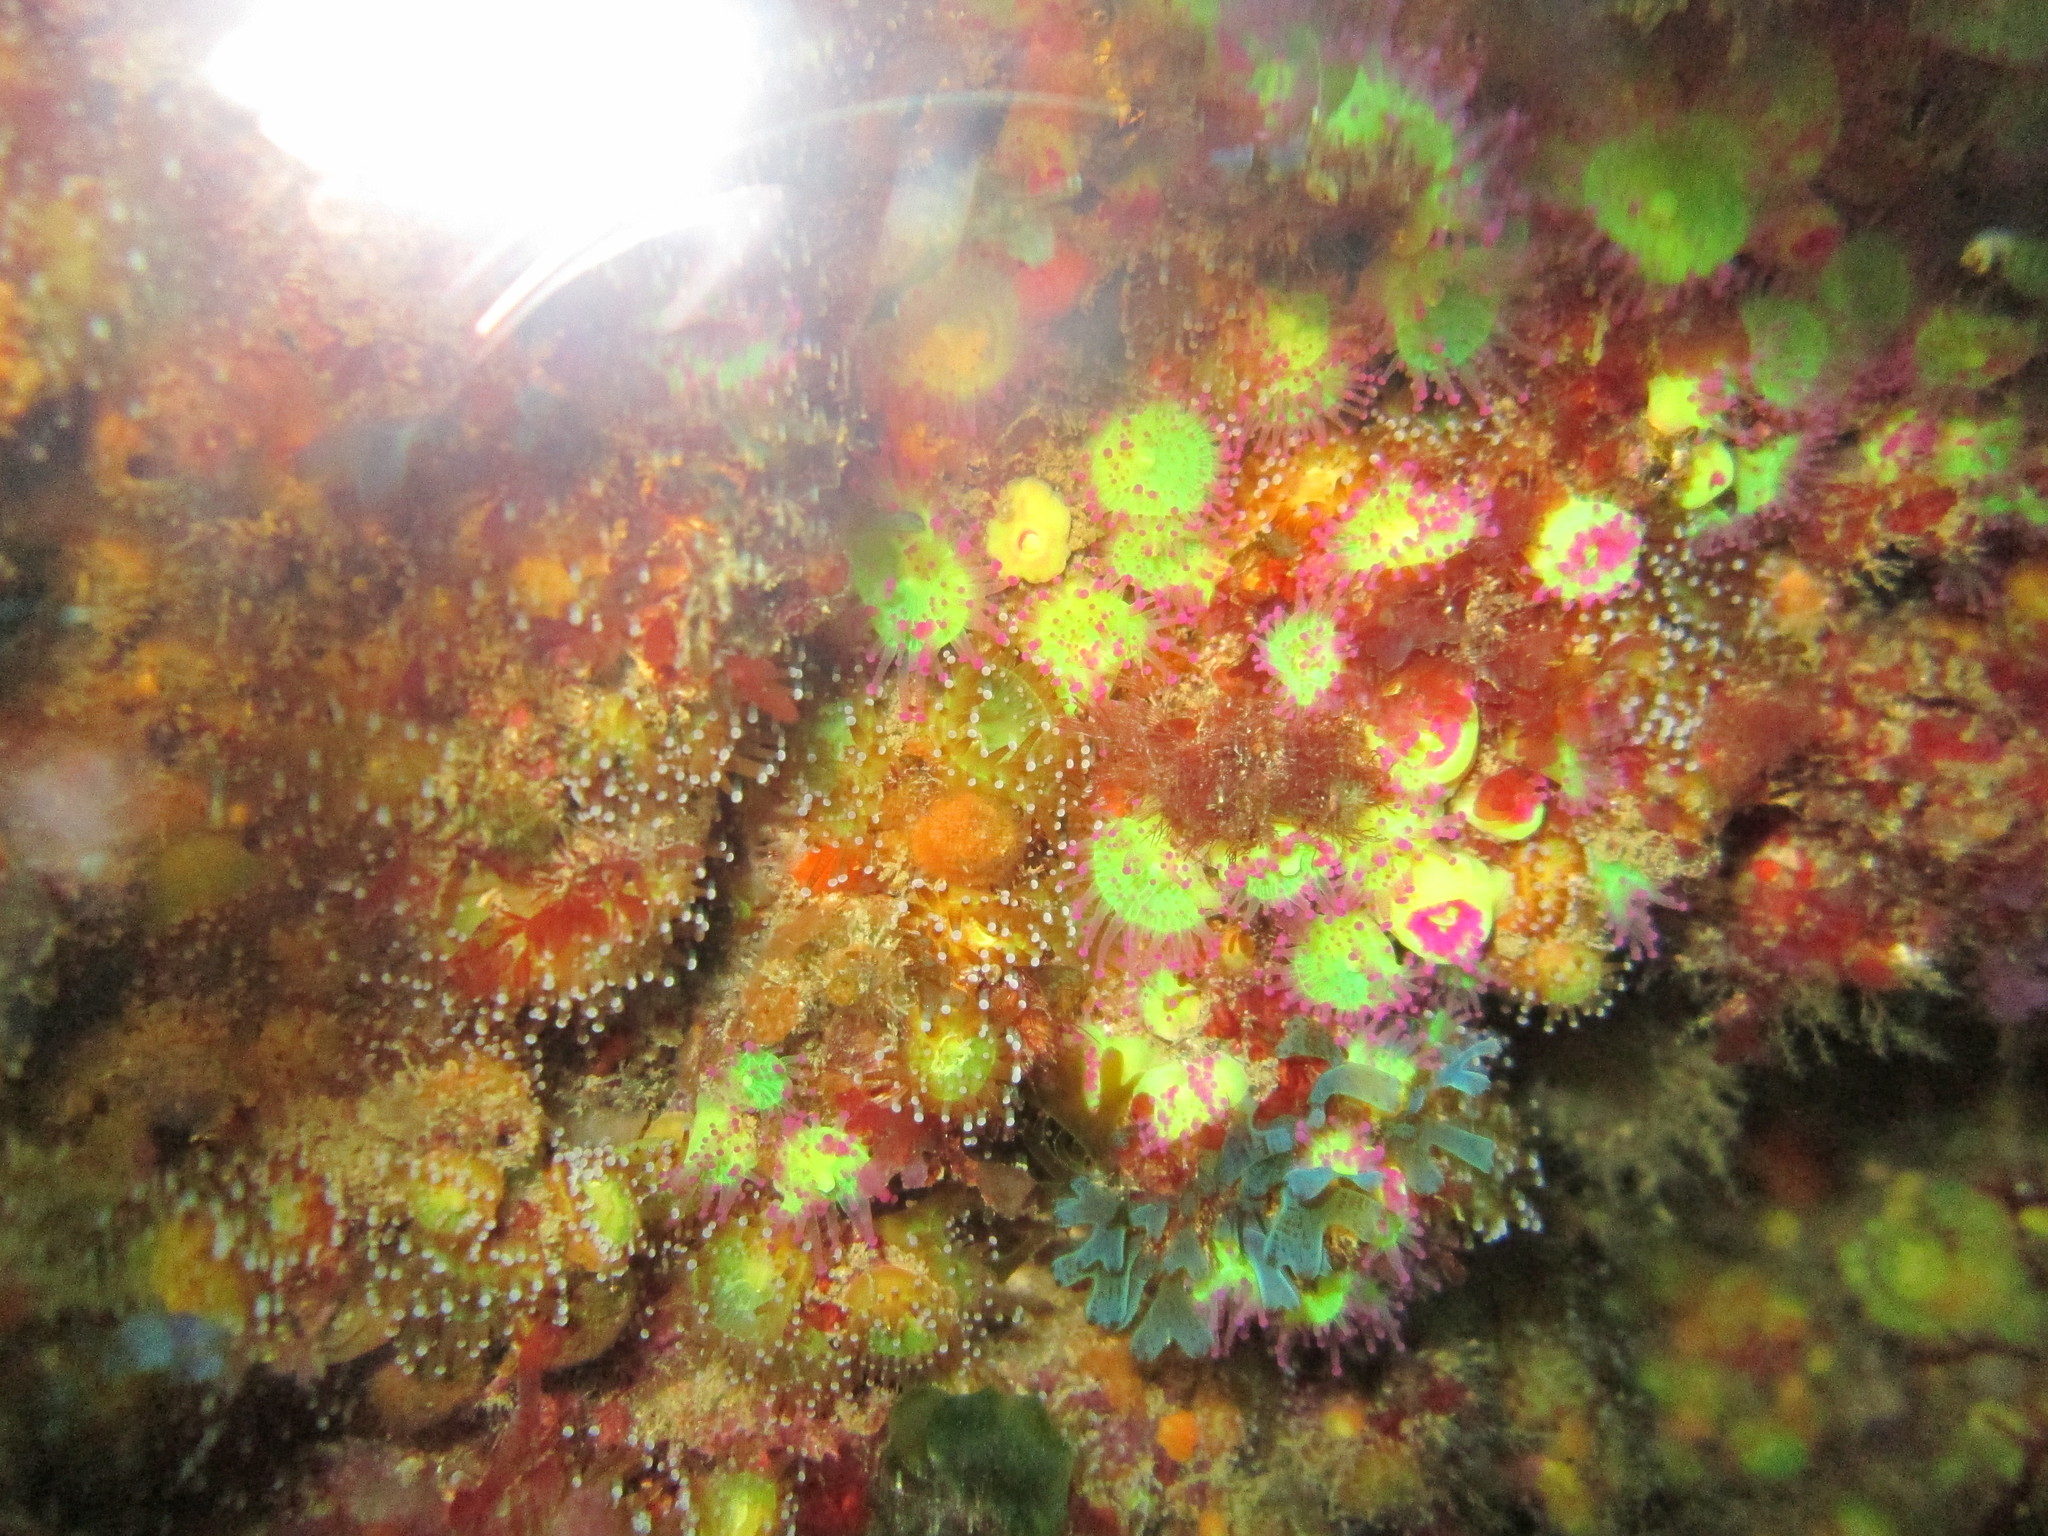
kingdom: Animalia
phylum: Cnidaria
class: Anthozoa
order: Corallimorpharia
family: Corallimorphidae
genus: Corynactis
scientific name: Corynactis viridis
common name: Jewel anemone
